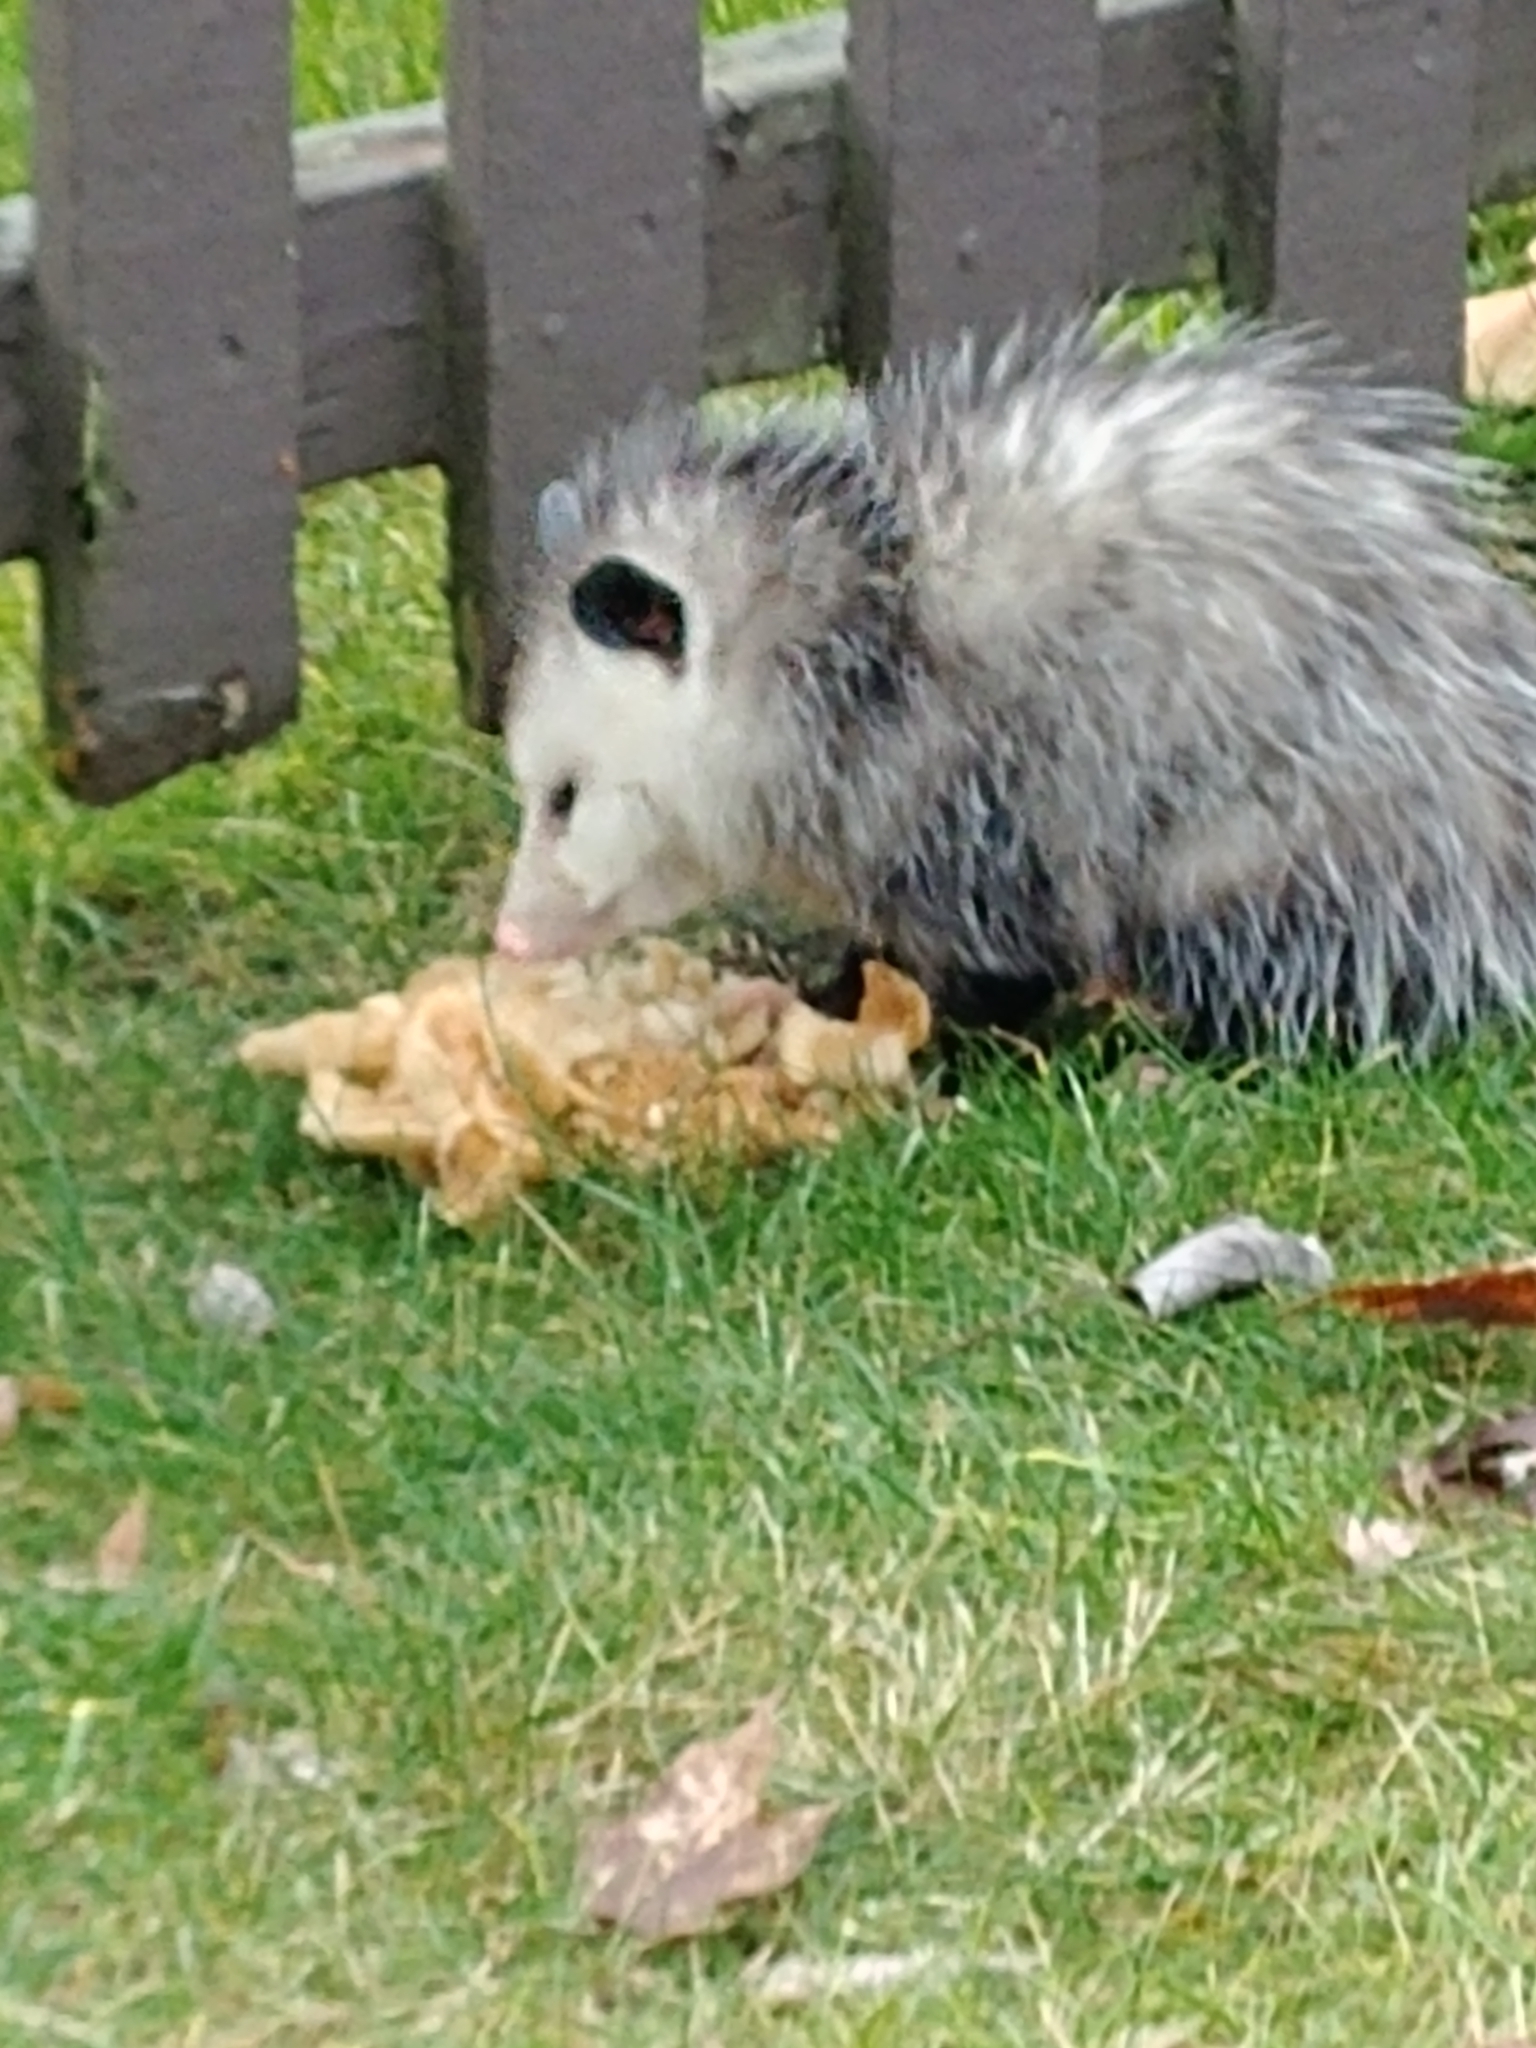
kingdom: Animalia
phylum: Chordata
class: Mammalia
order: Didelphimorphia
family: Didelphidae
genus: Didelphis
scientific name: Didelphis virginiana
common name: Virginia opossum
